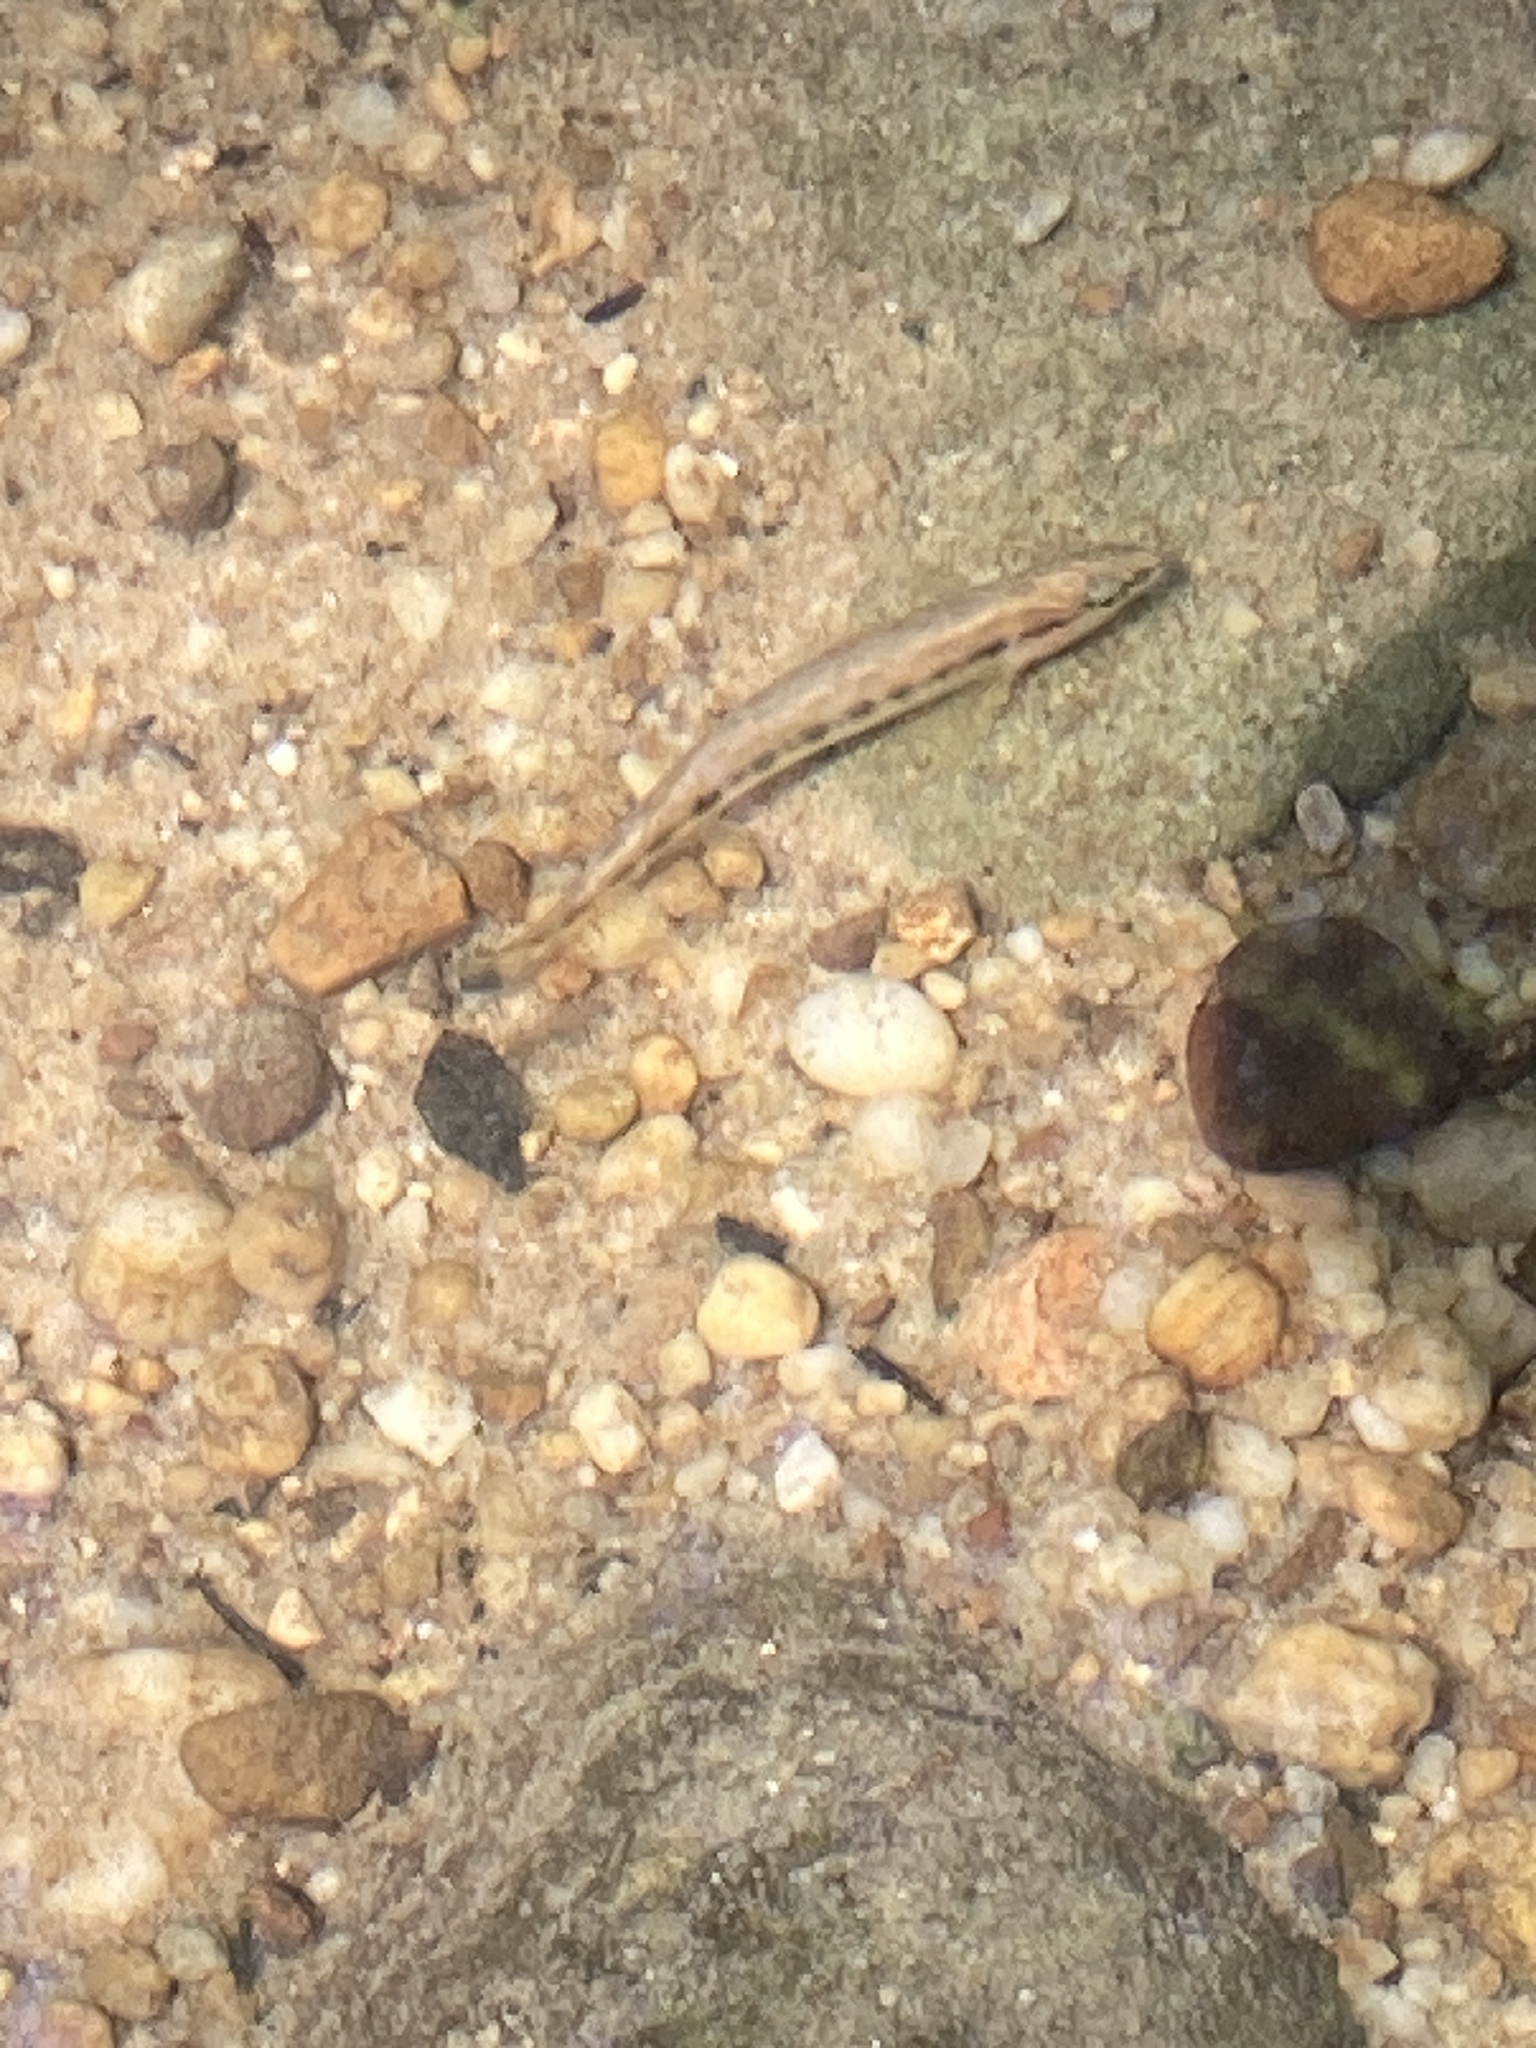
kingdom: Animalia
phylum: Chordata
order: Perciformes
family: Percidae
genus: Percina
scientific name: Percina nigrofasciata
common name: Blackbanded darter
